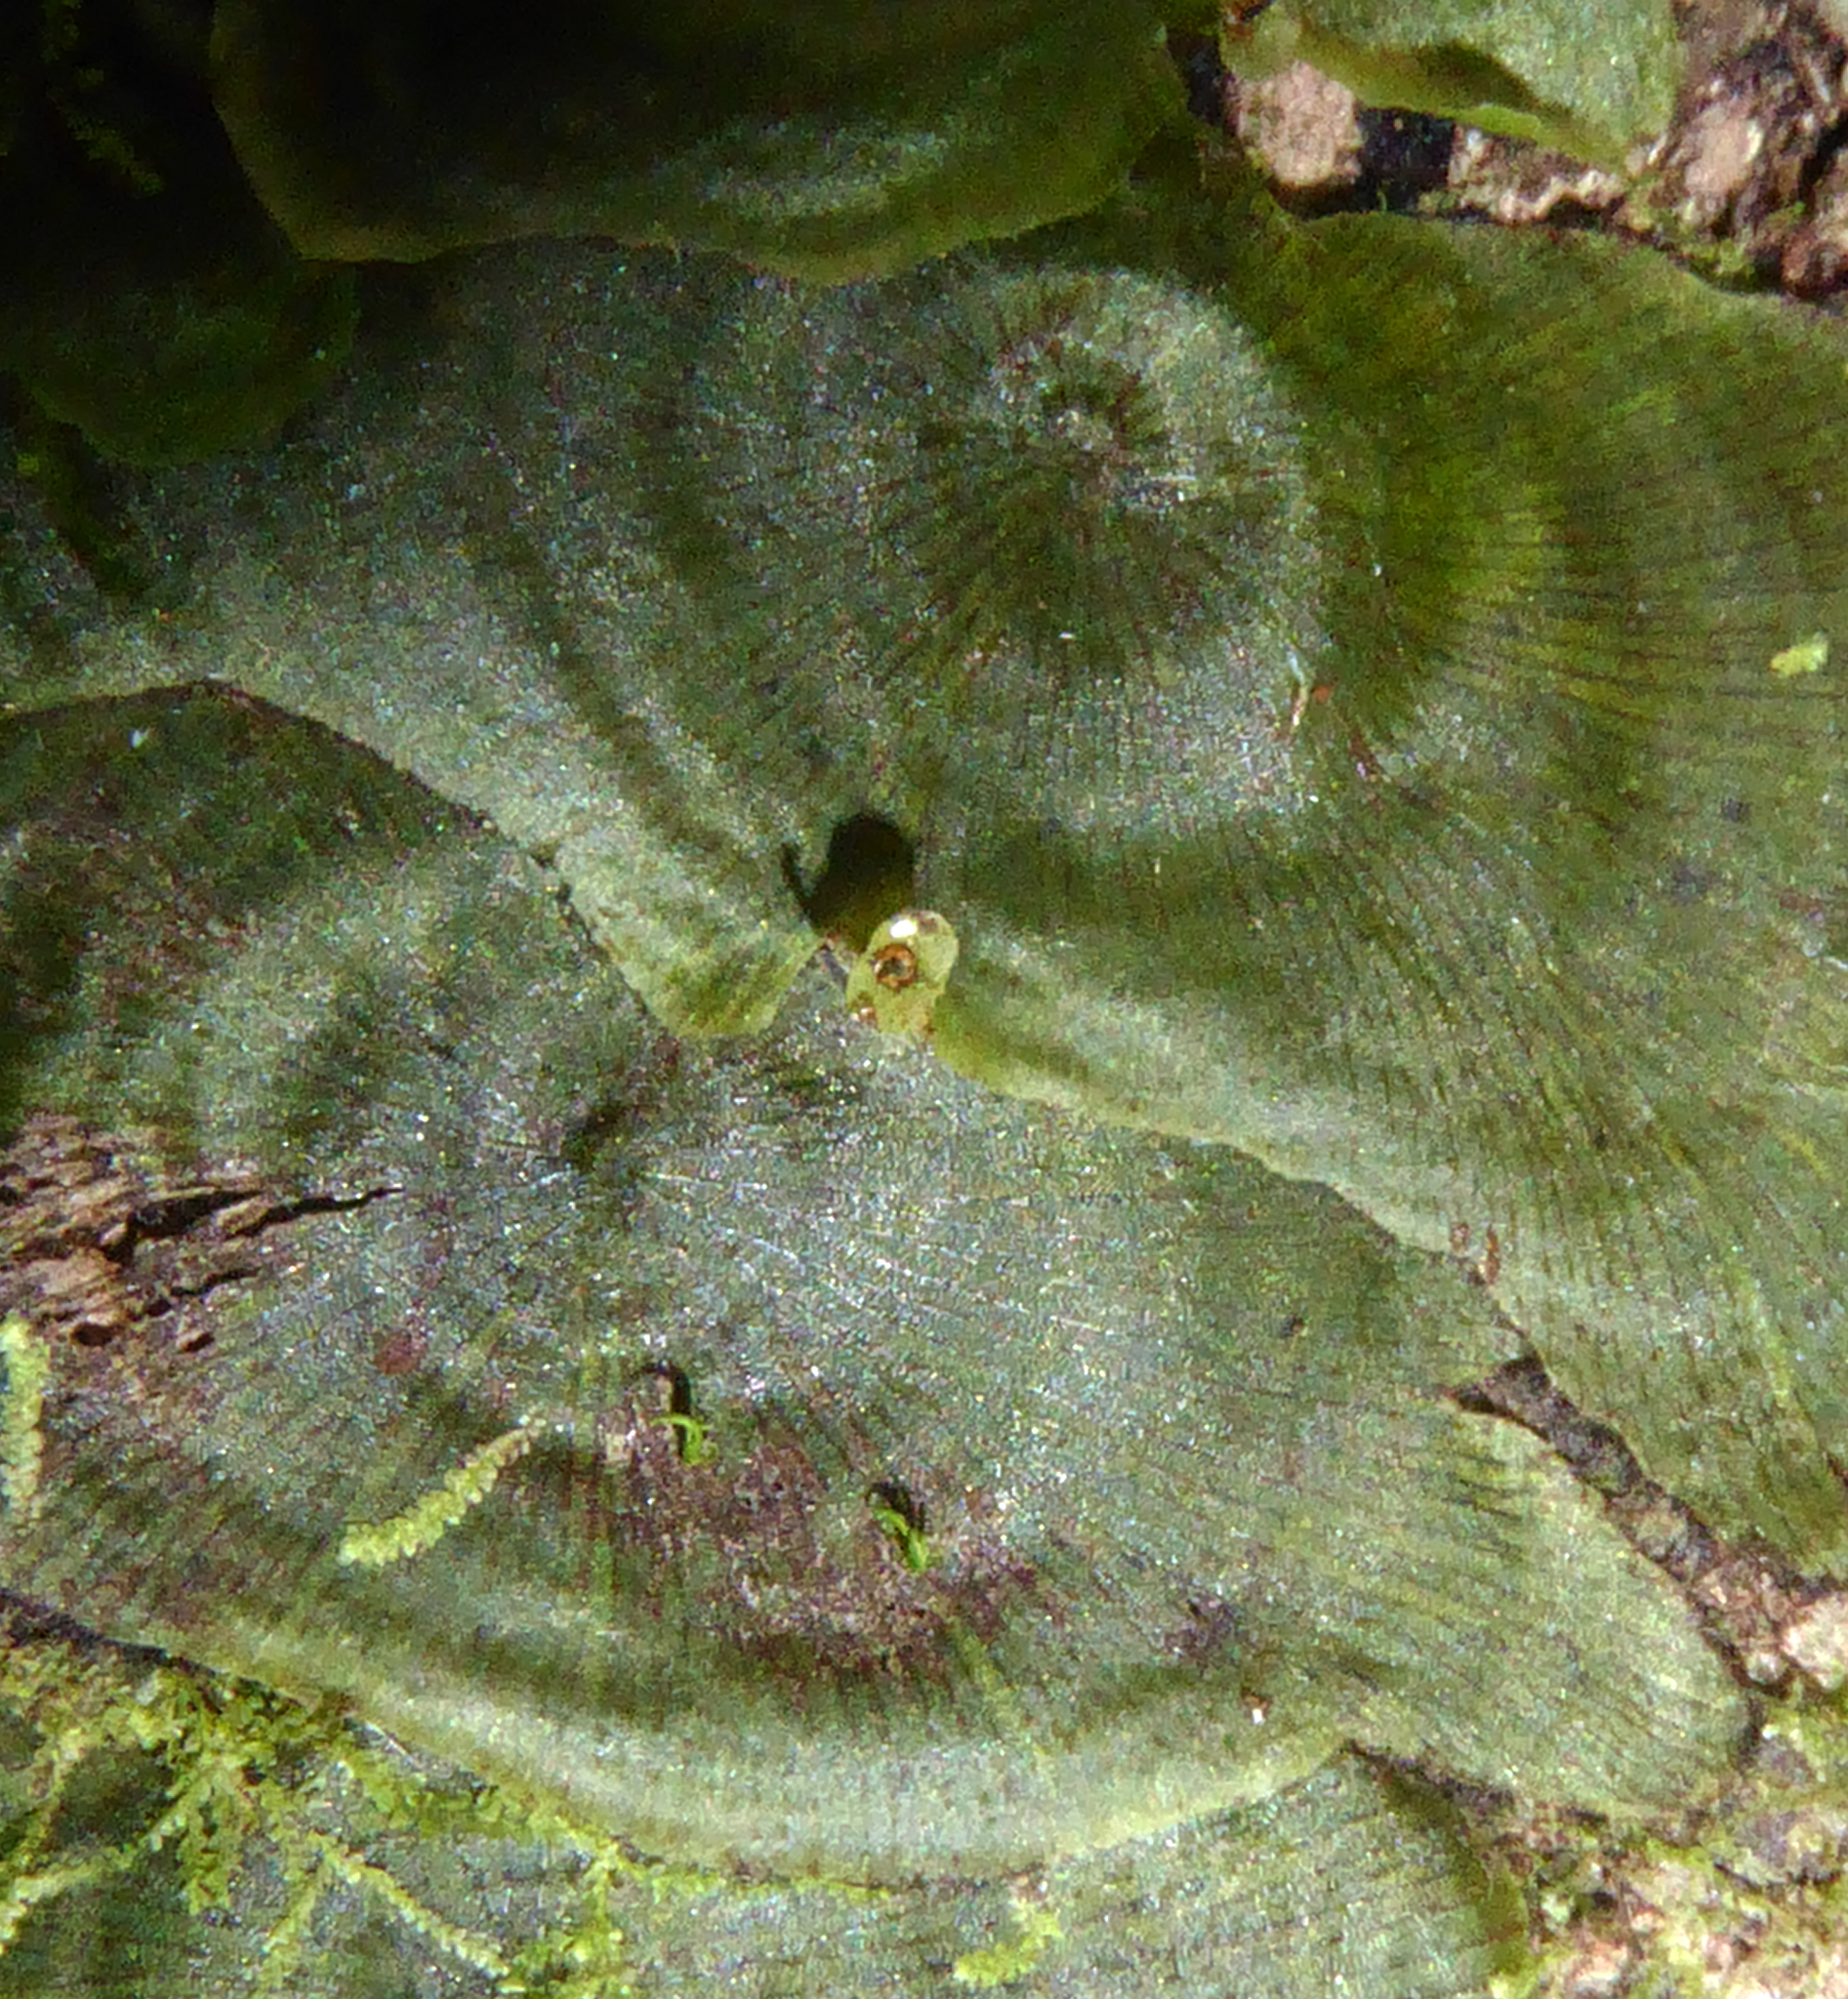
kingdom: Plantae
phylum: Tracheophyta
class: Polypodiopsida
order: Hymenophyllales
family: Hymenophyllaceae
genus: Didymoglossum
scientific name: Didymoglossum tahitense
